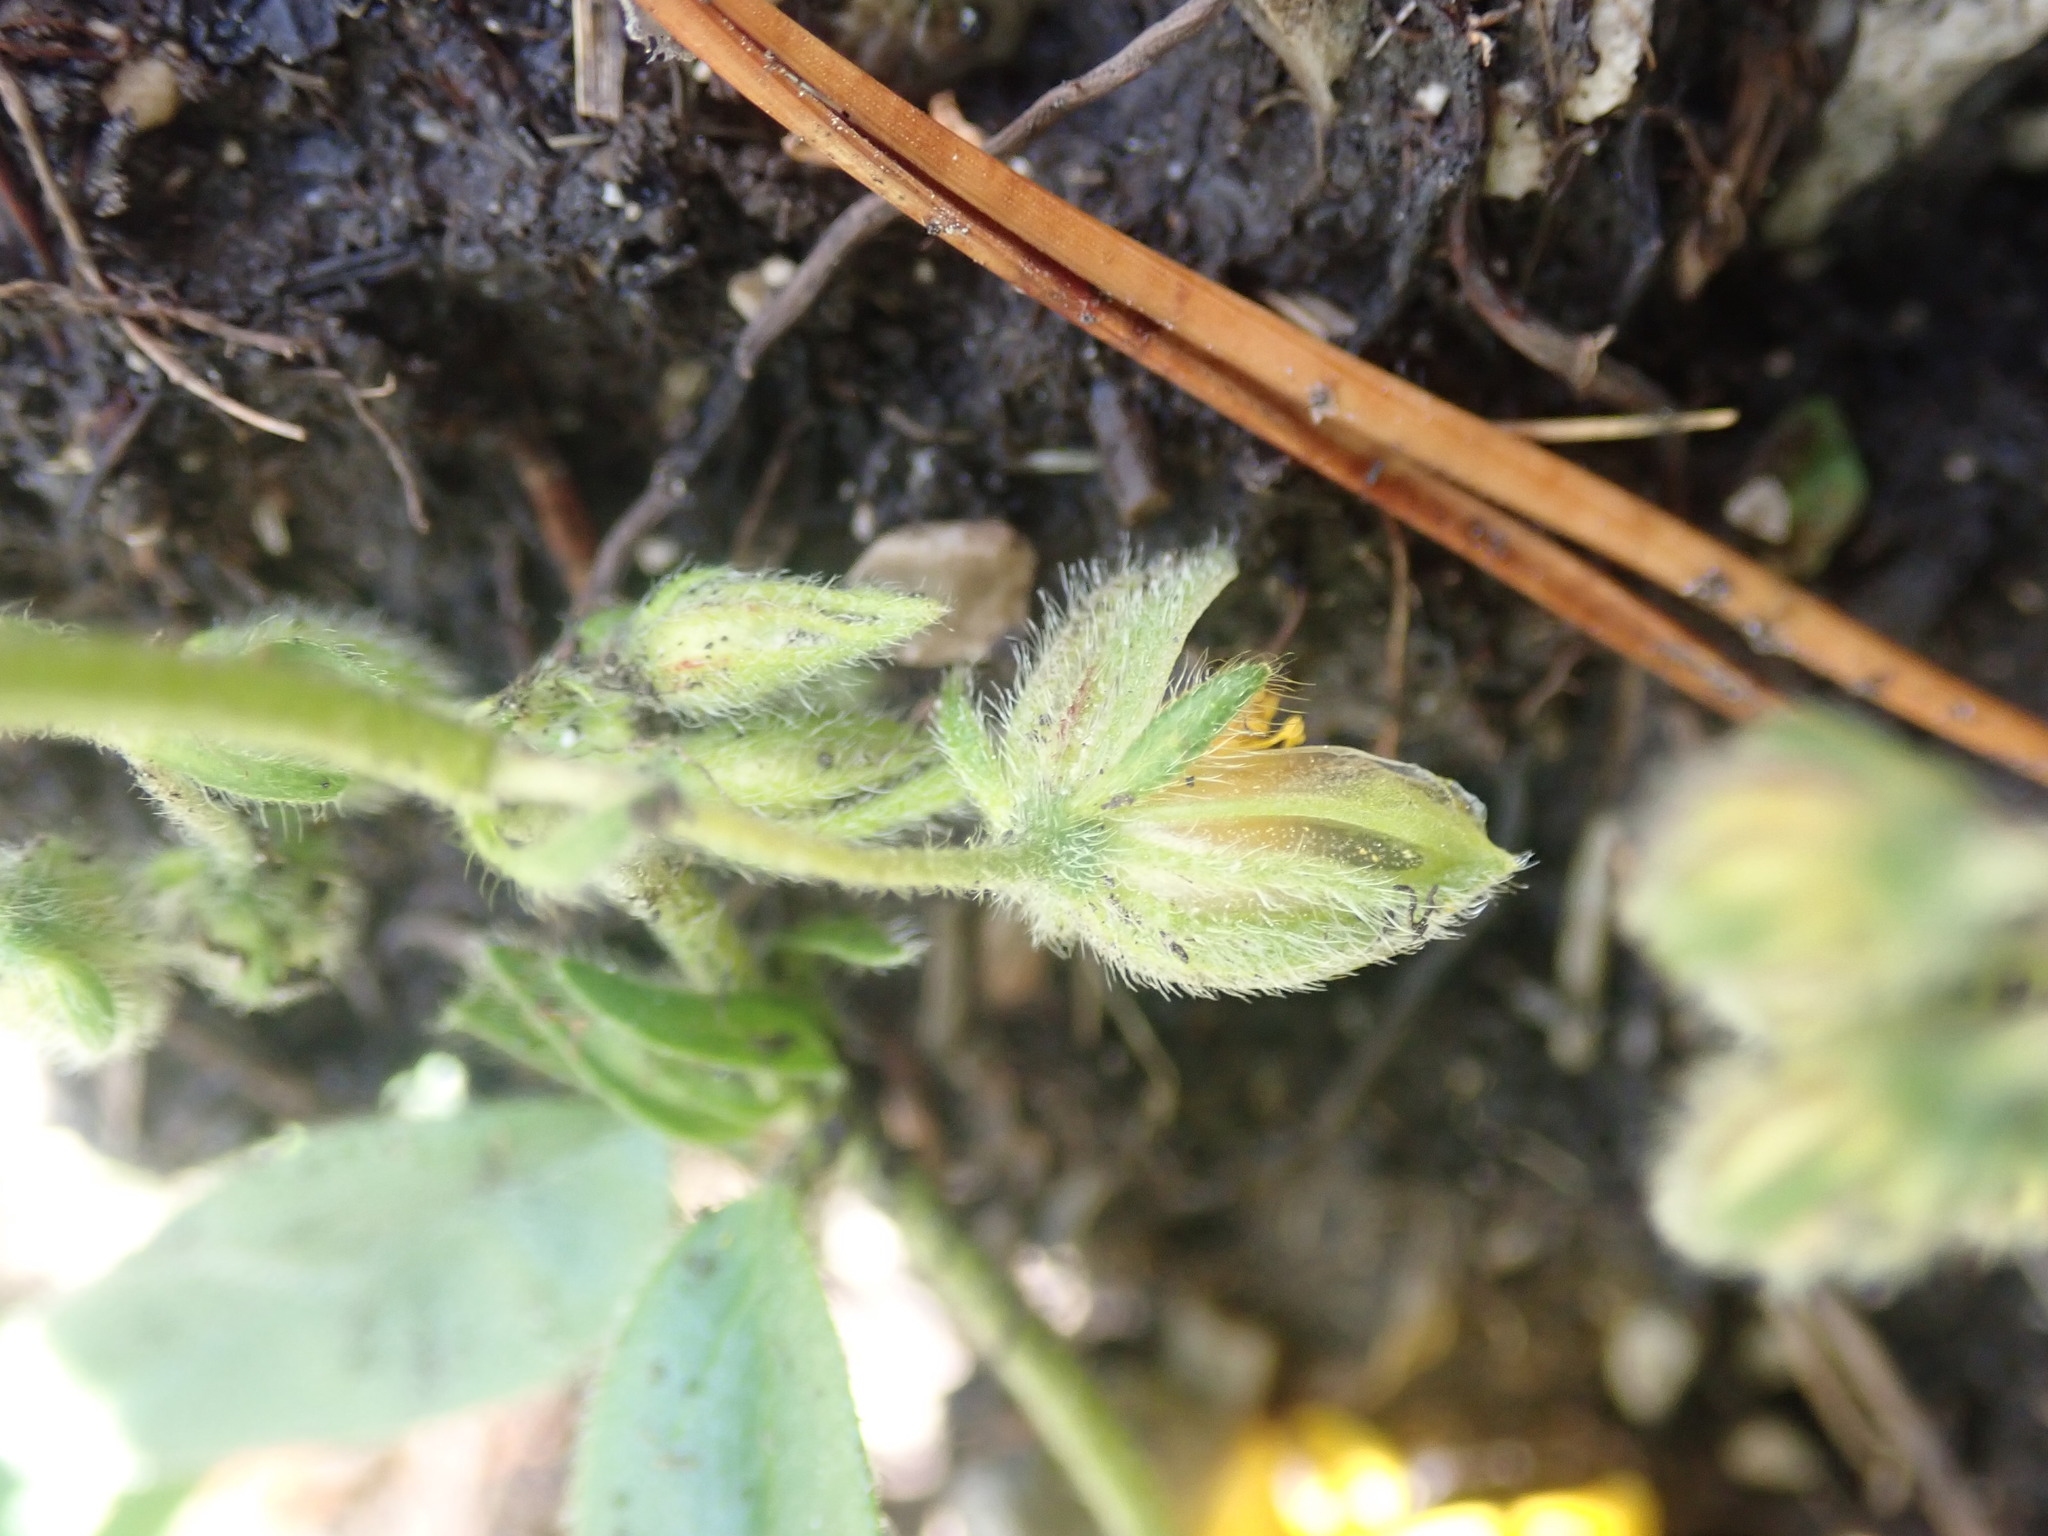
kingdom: Plantae
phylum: Tracheophyta
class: Magnoliopsida
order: Malvales
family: Cistaceae
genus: Helianthemum
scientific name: Helianthemum nummularium
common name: Common rock-rose
